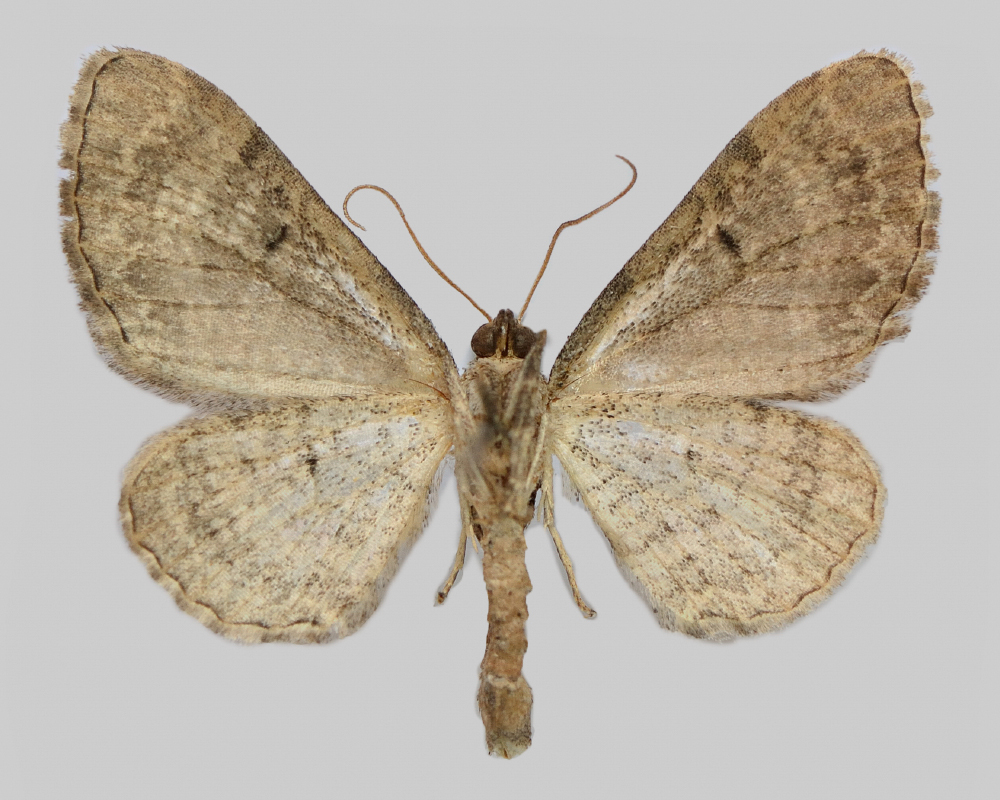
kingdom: Animalia
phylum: Arthropoda
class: Insecta
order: Lepidoptera
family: Geometridae
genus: Eupithecia
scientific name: Eupithecia simpliciata
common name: Plain pug
